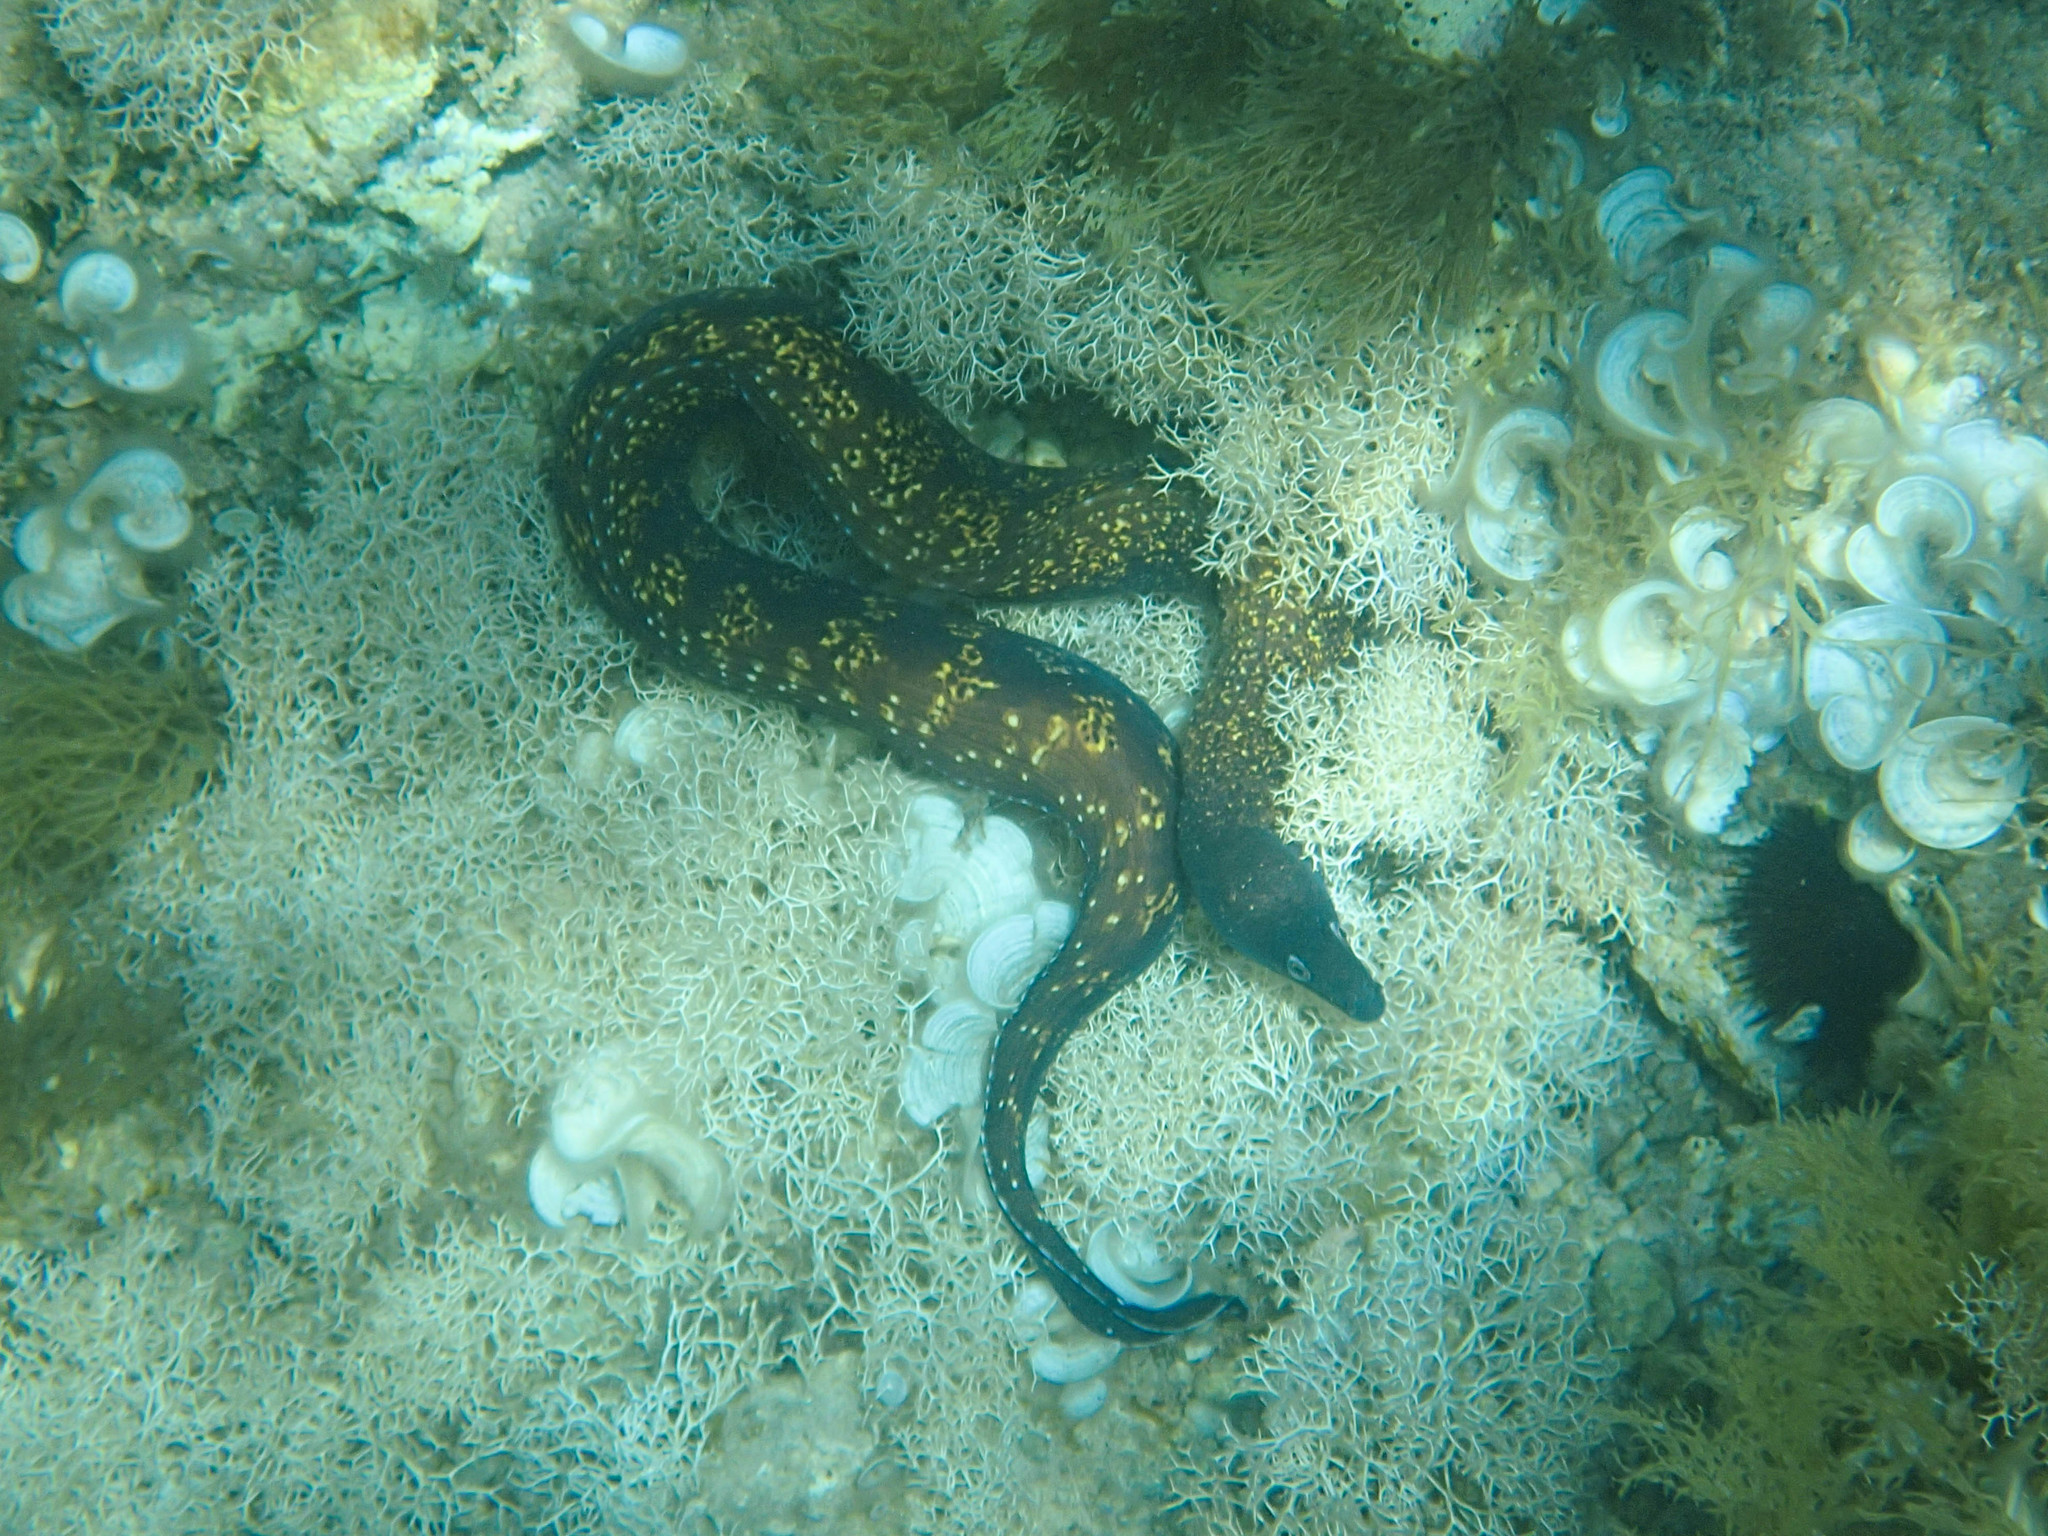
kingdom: Animalia
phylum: Chordata
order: Anguilliformes
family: Muraenidae
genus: Muraena
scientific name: Muraena helena
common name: Mediterranean moray
